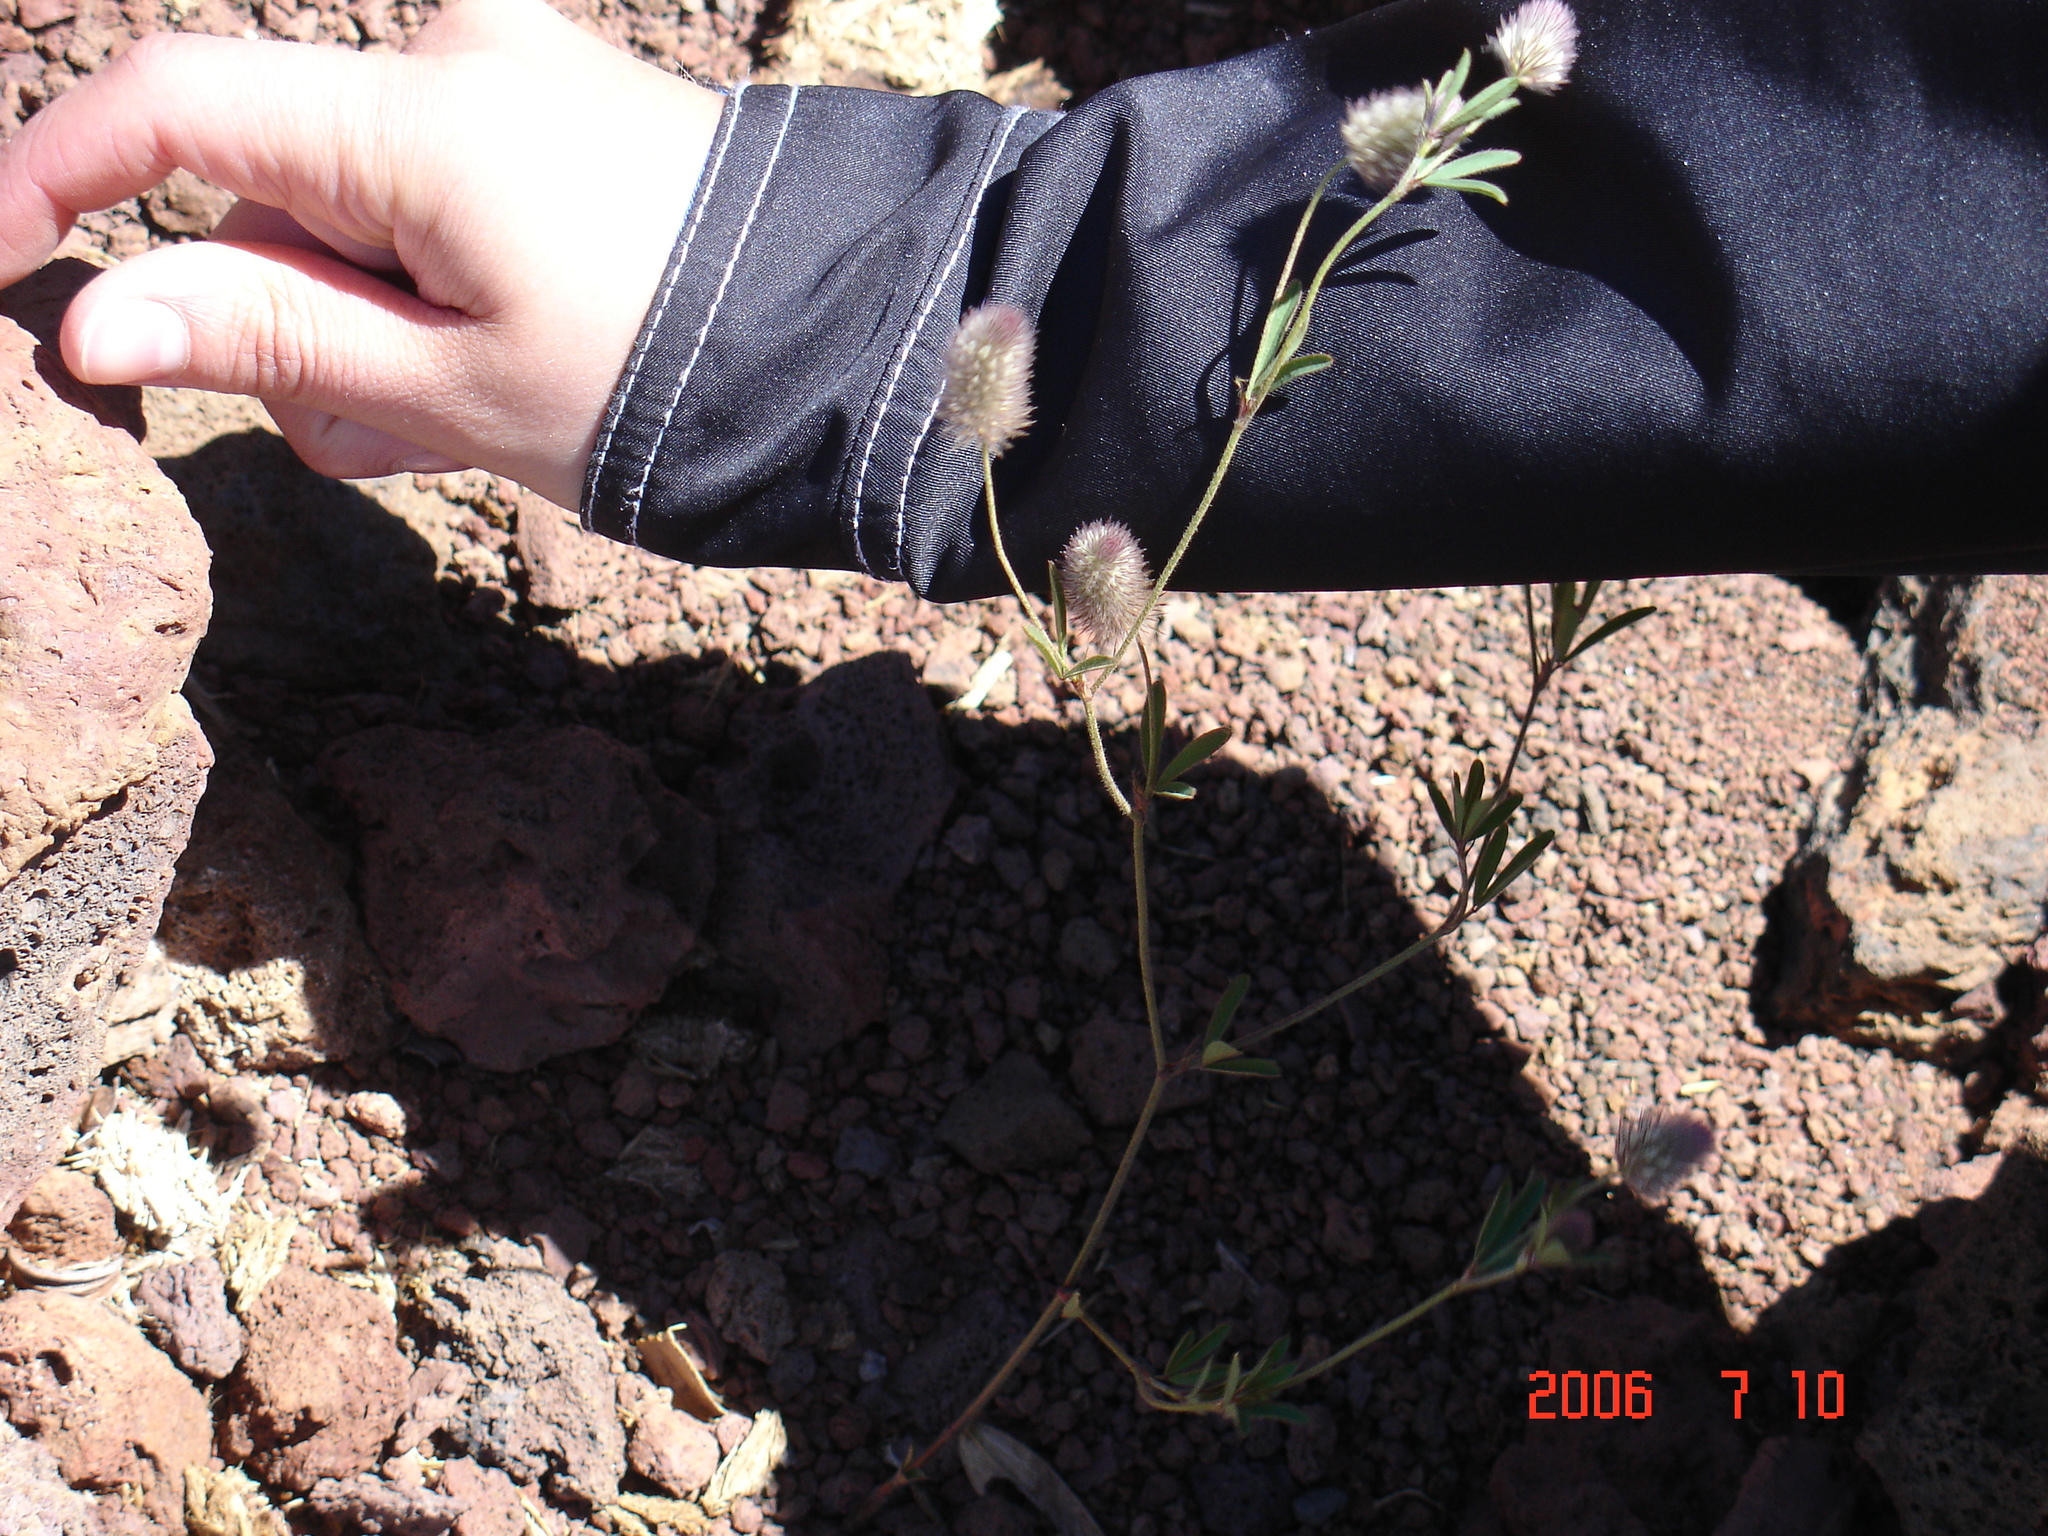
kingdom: Plantae
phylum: Tracheophyta
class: Magnoliopsida
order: Fabales
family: Fabaceae
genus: Trifolium
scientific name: Trifolium arvense
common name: Hare's-foot clover
